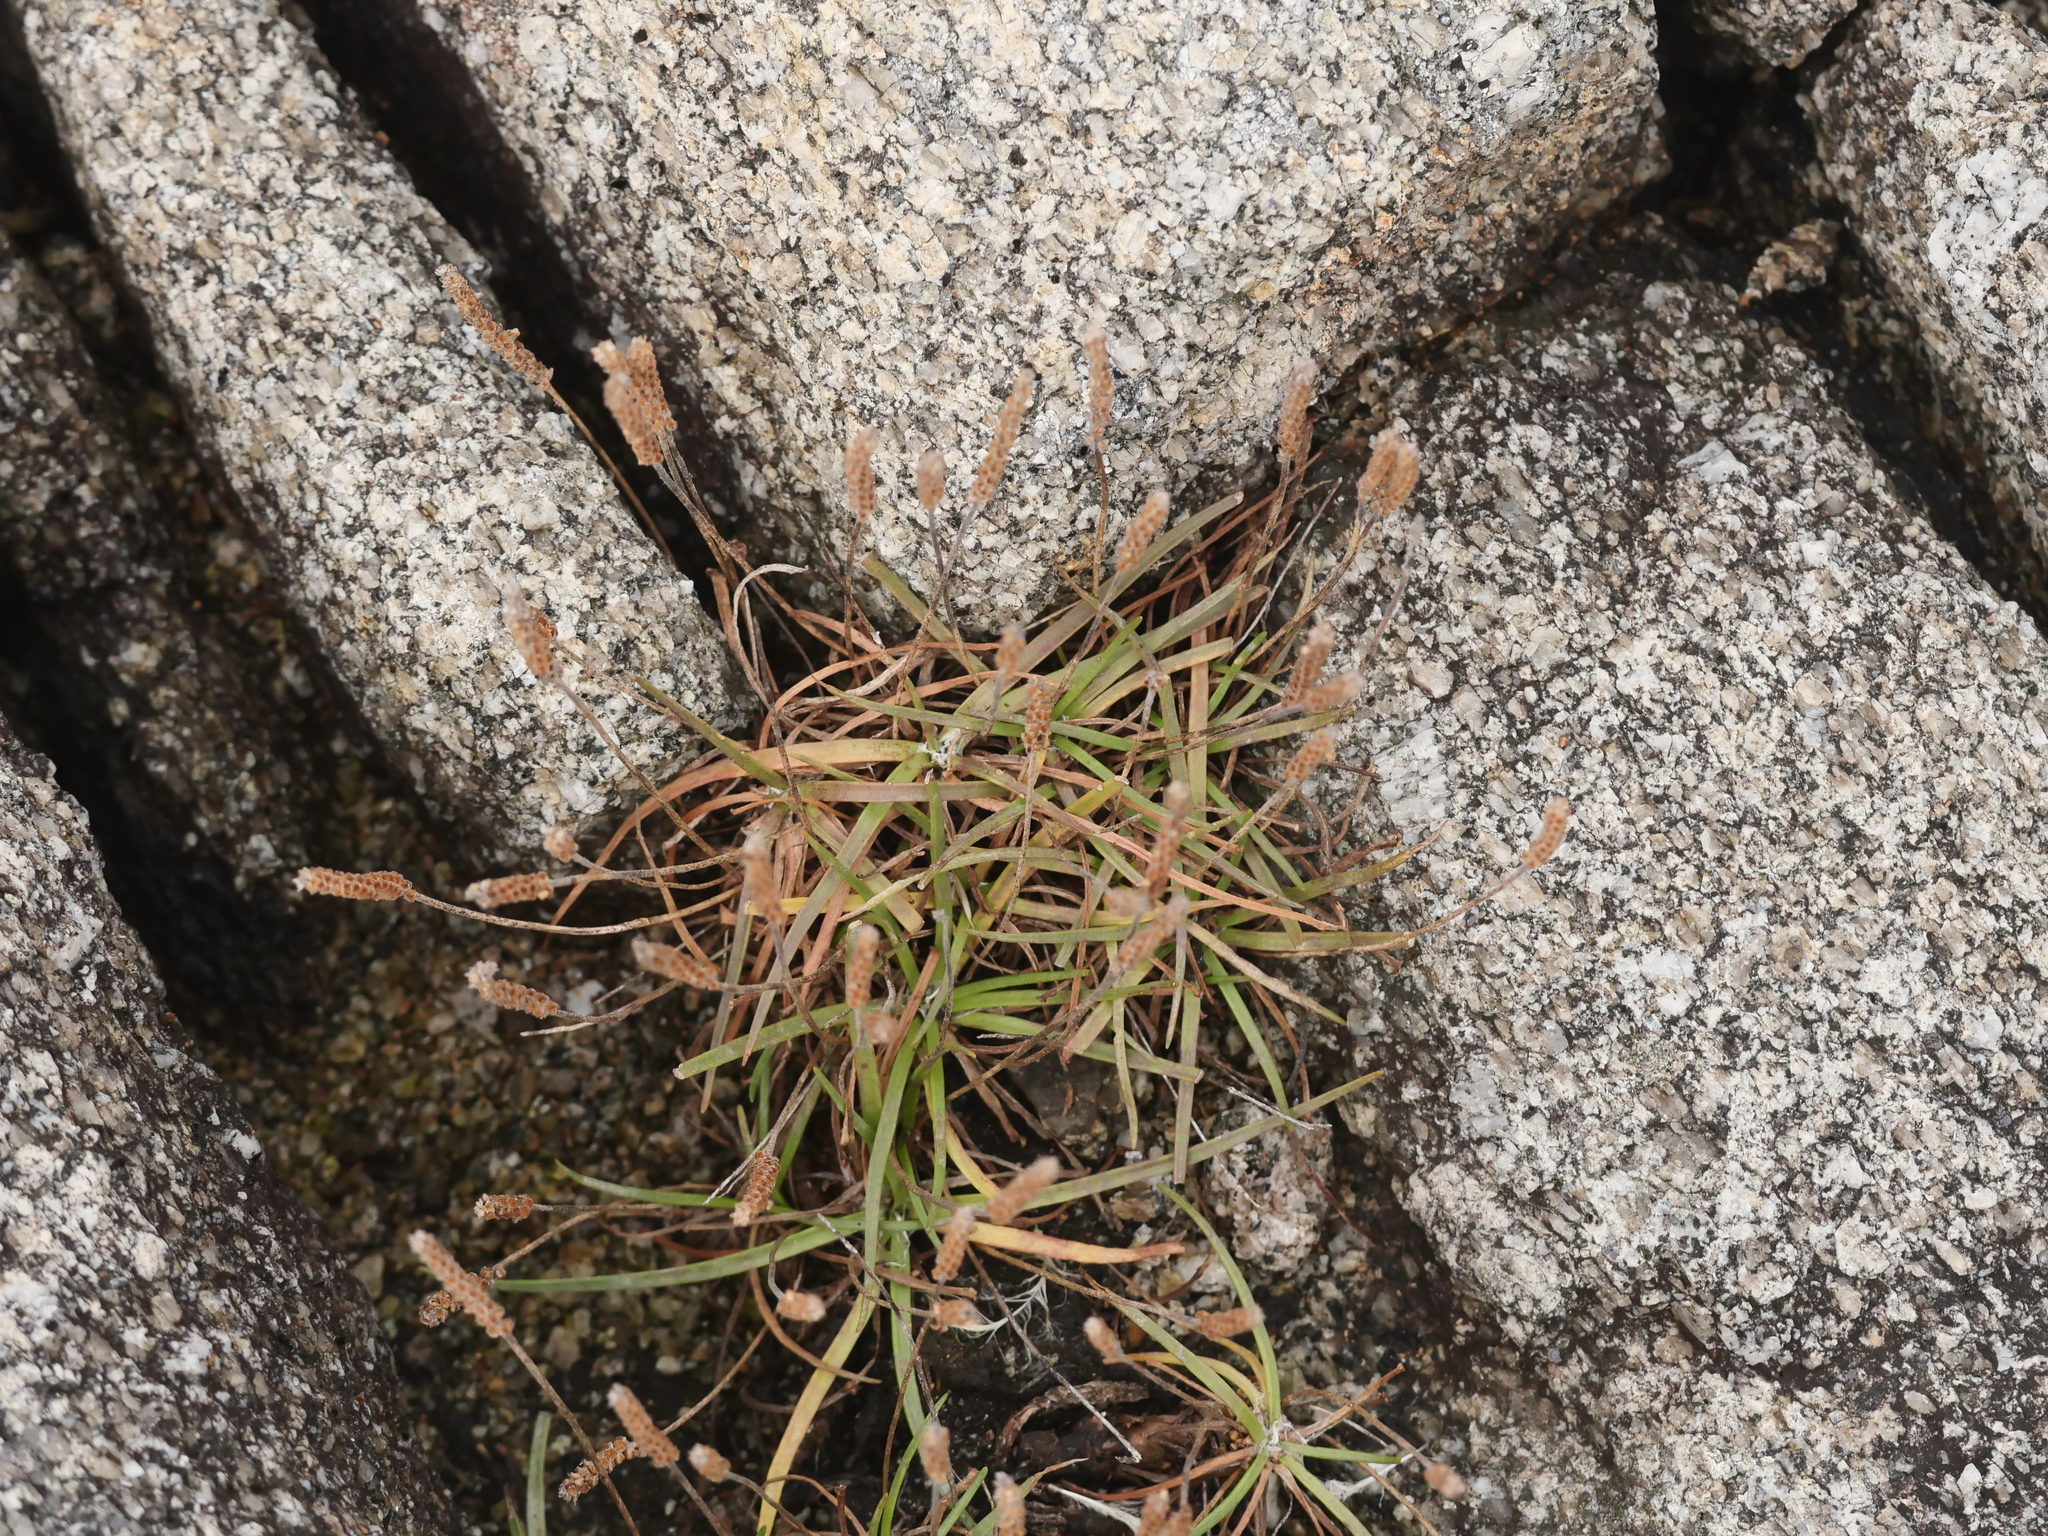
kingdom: Plantae
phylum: Tracheophyta
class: Magnoliopsida
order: Lamiales
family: Plantaginaceae
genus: Plantago
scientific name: Plantago maritima
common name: Sea plantain
